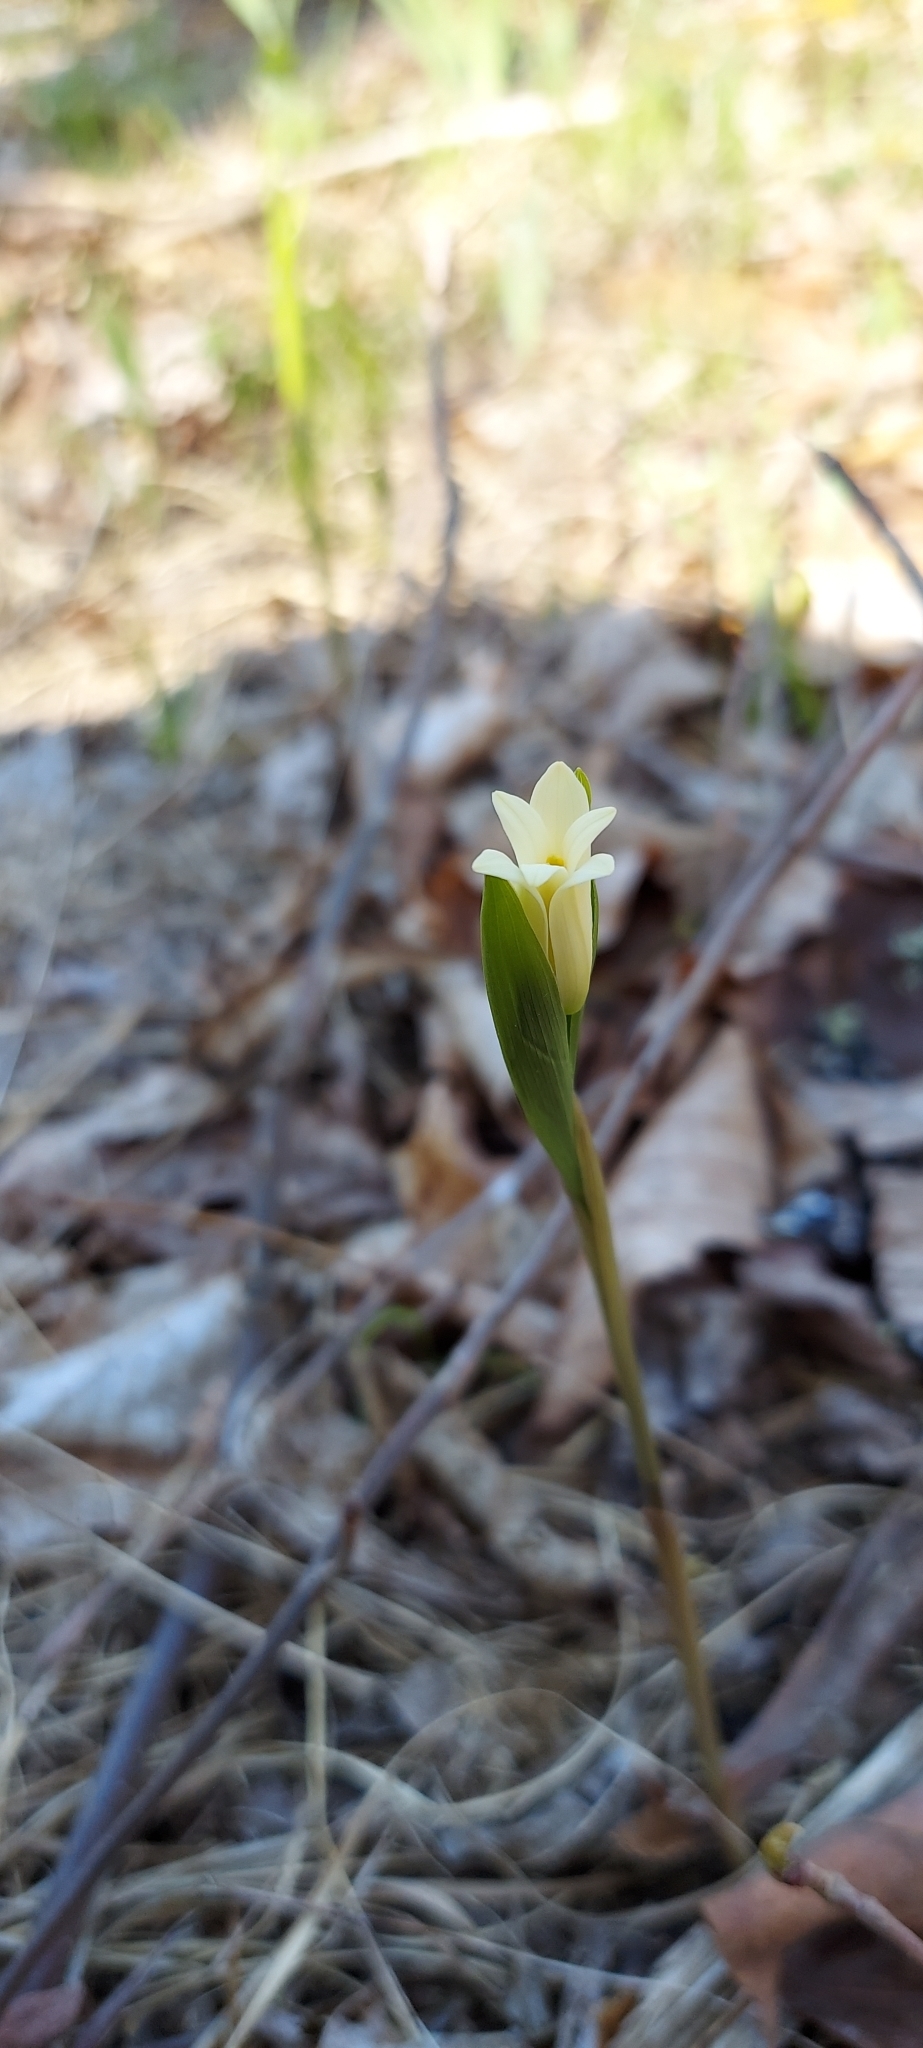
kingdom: Plantae
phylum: Tracheophyta
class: Liliopsida
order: Liliales
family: Colchicaceae
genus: Uvularia
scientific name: Uvularia puberula
